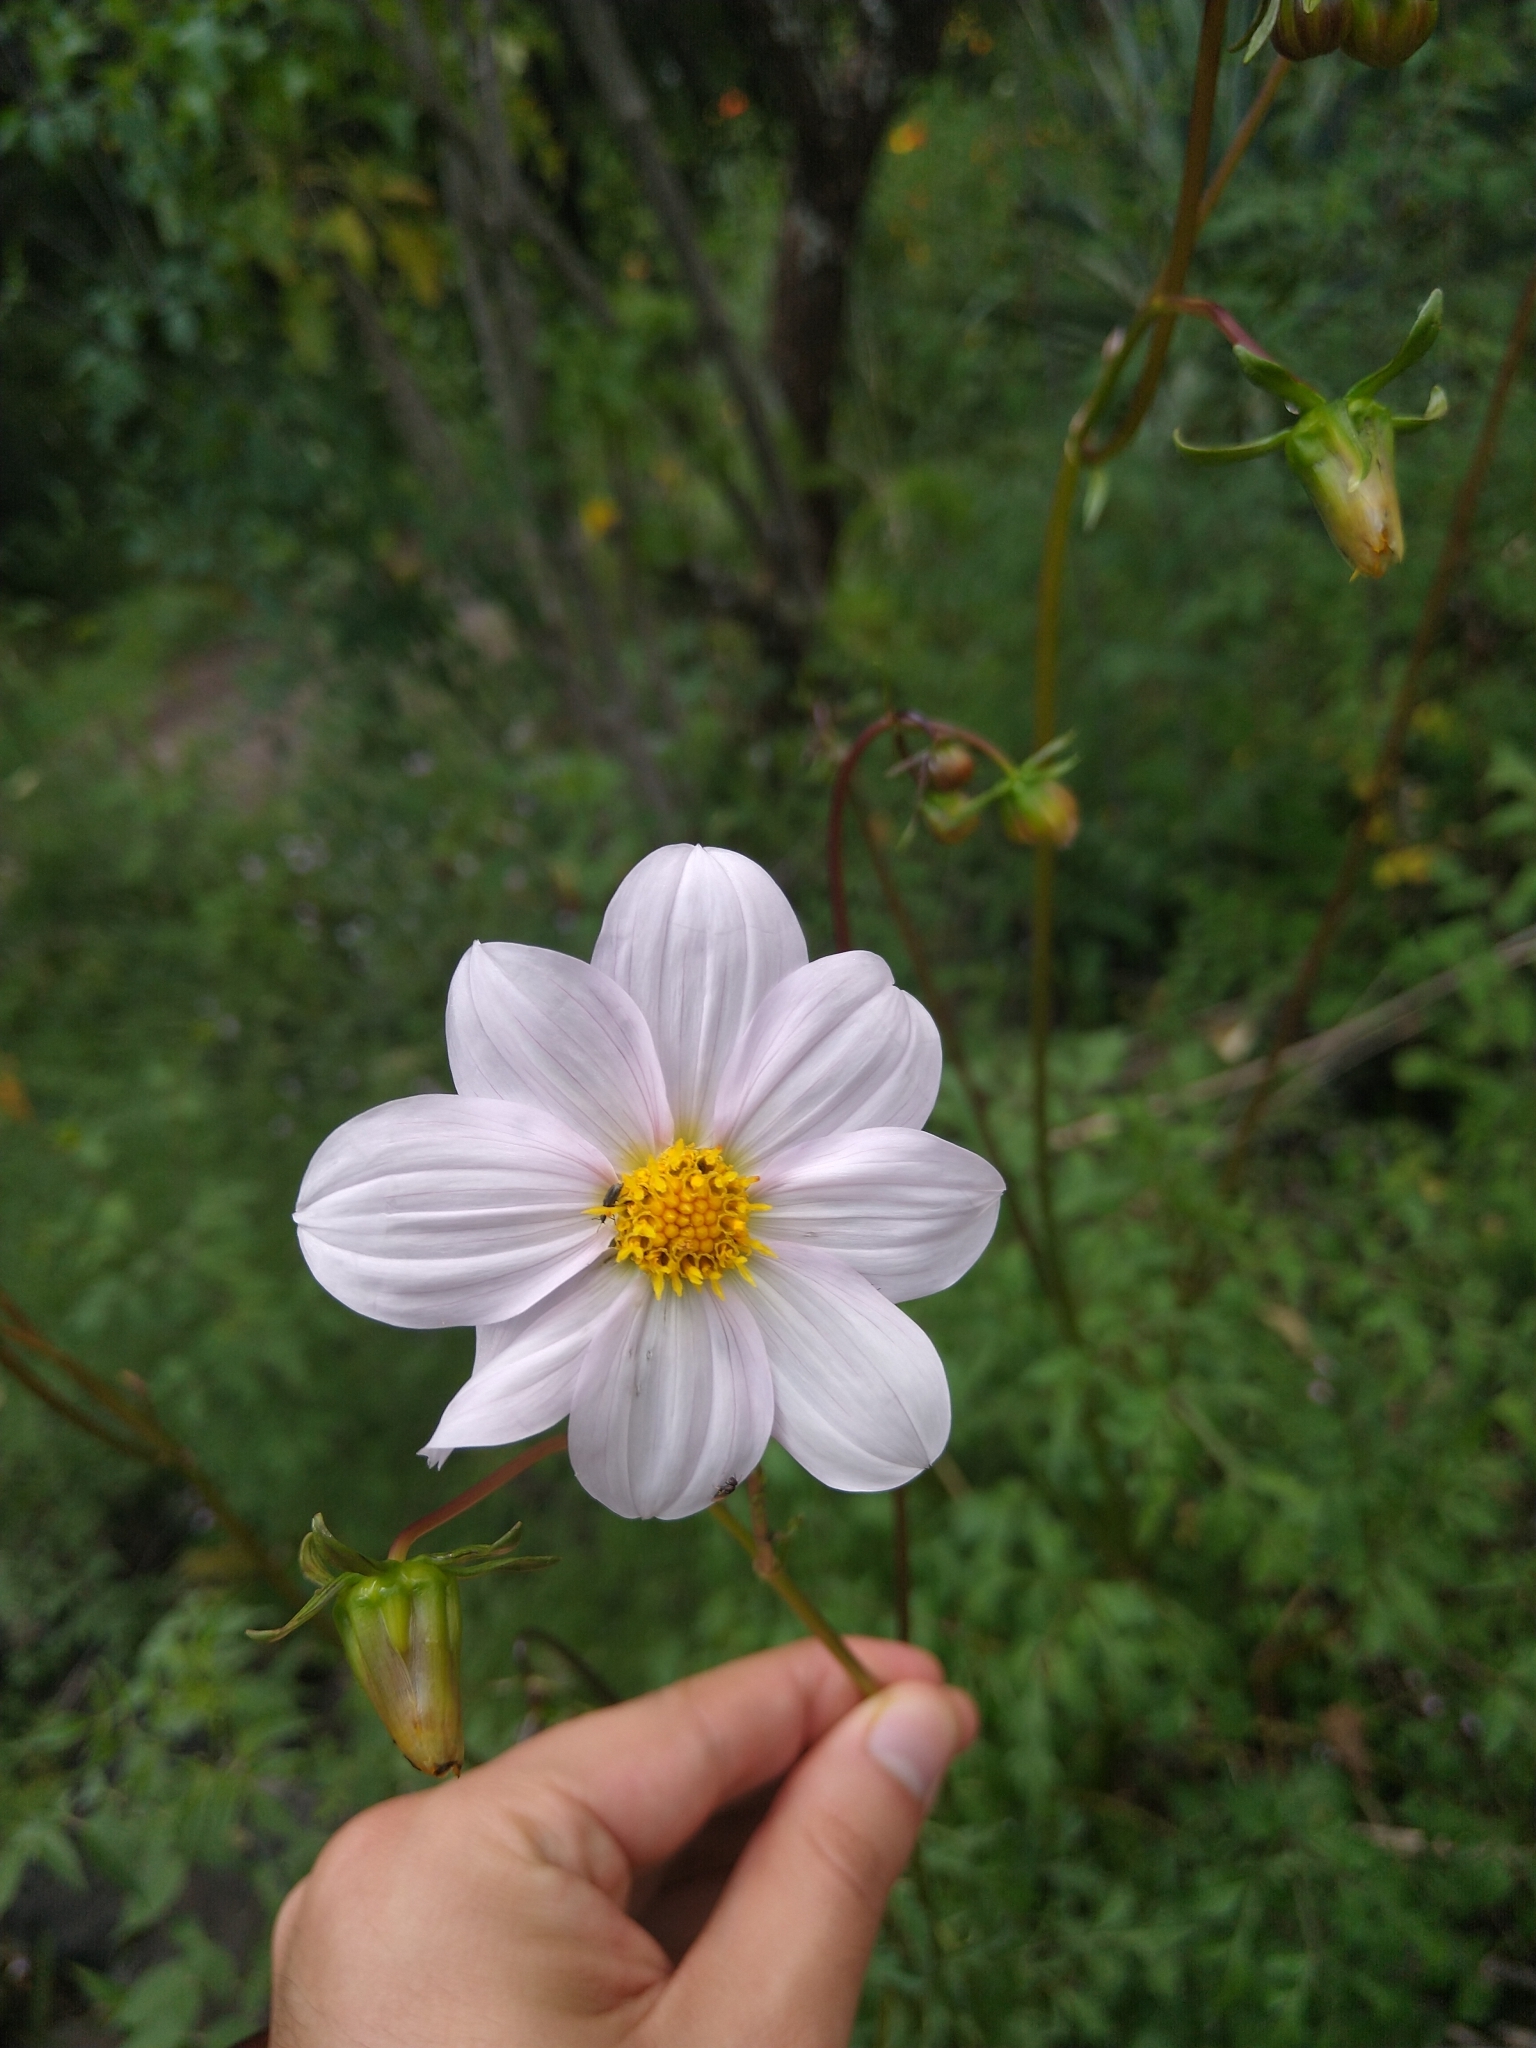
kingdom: Plantae
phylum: Tracheophyta
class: Magnoliopsida
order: Asterales
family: Asteraceae
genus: Dahlia
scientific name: Dahlia merckii
